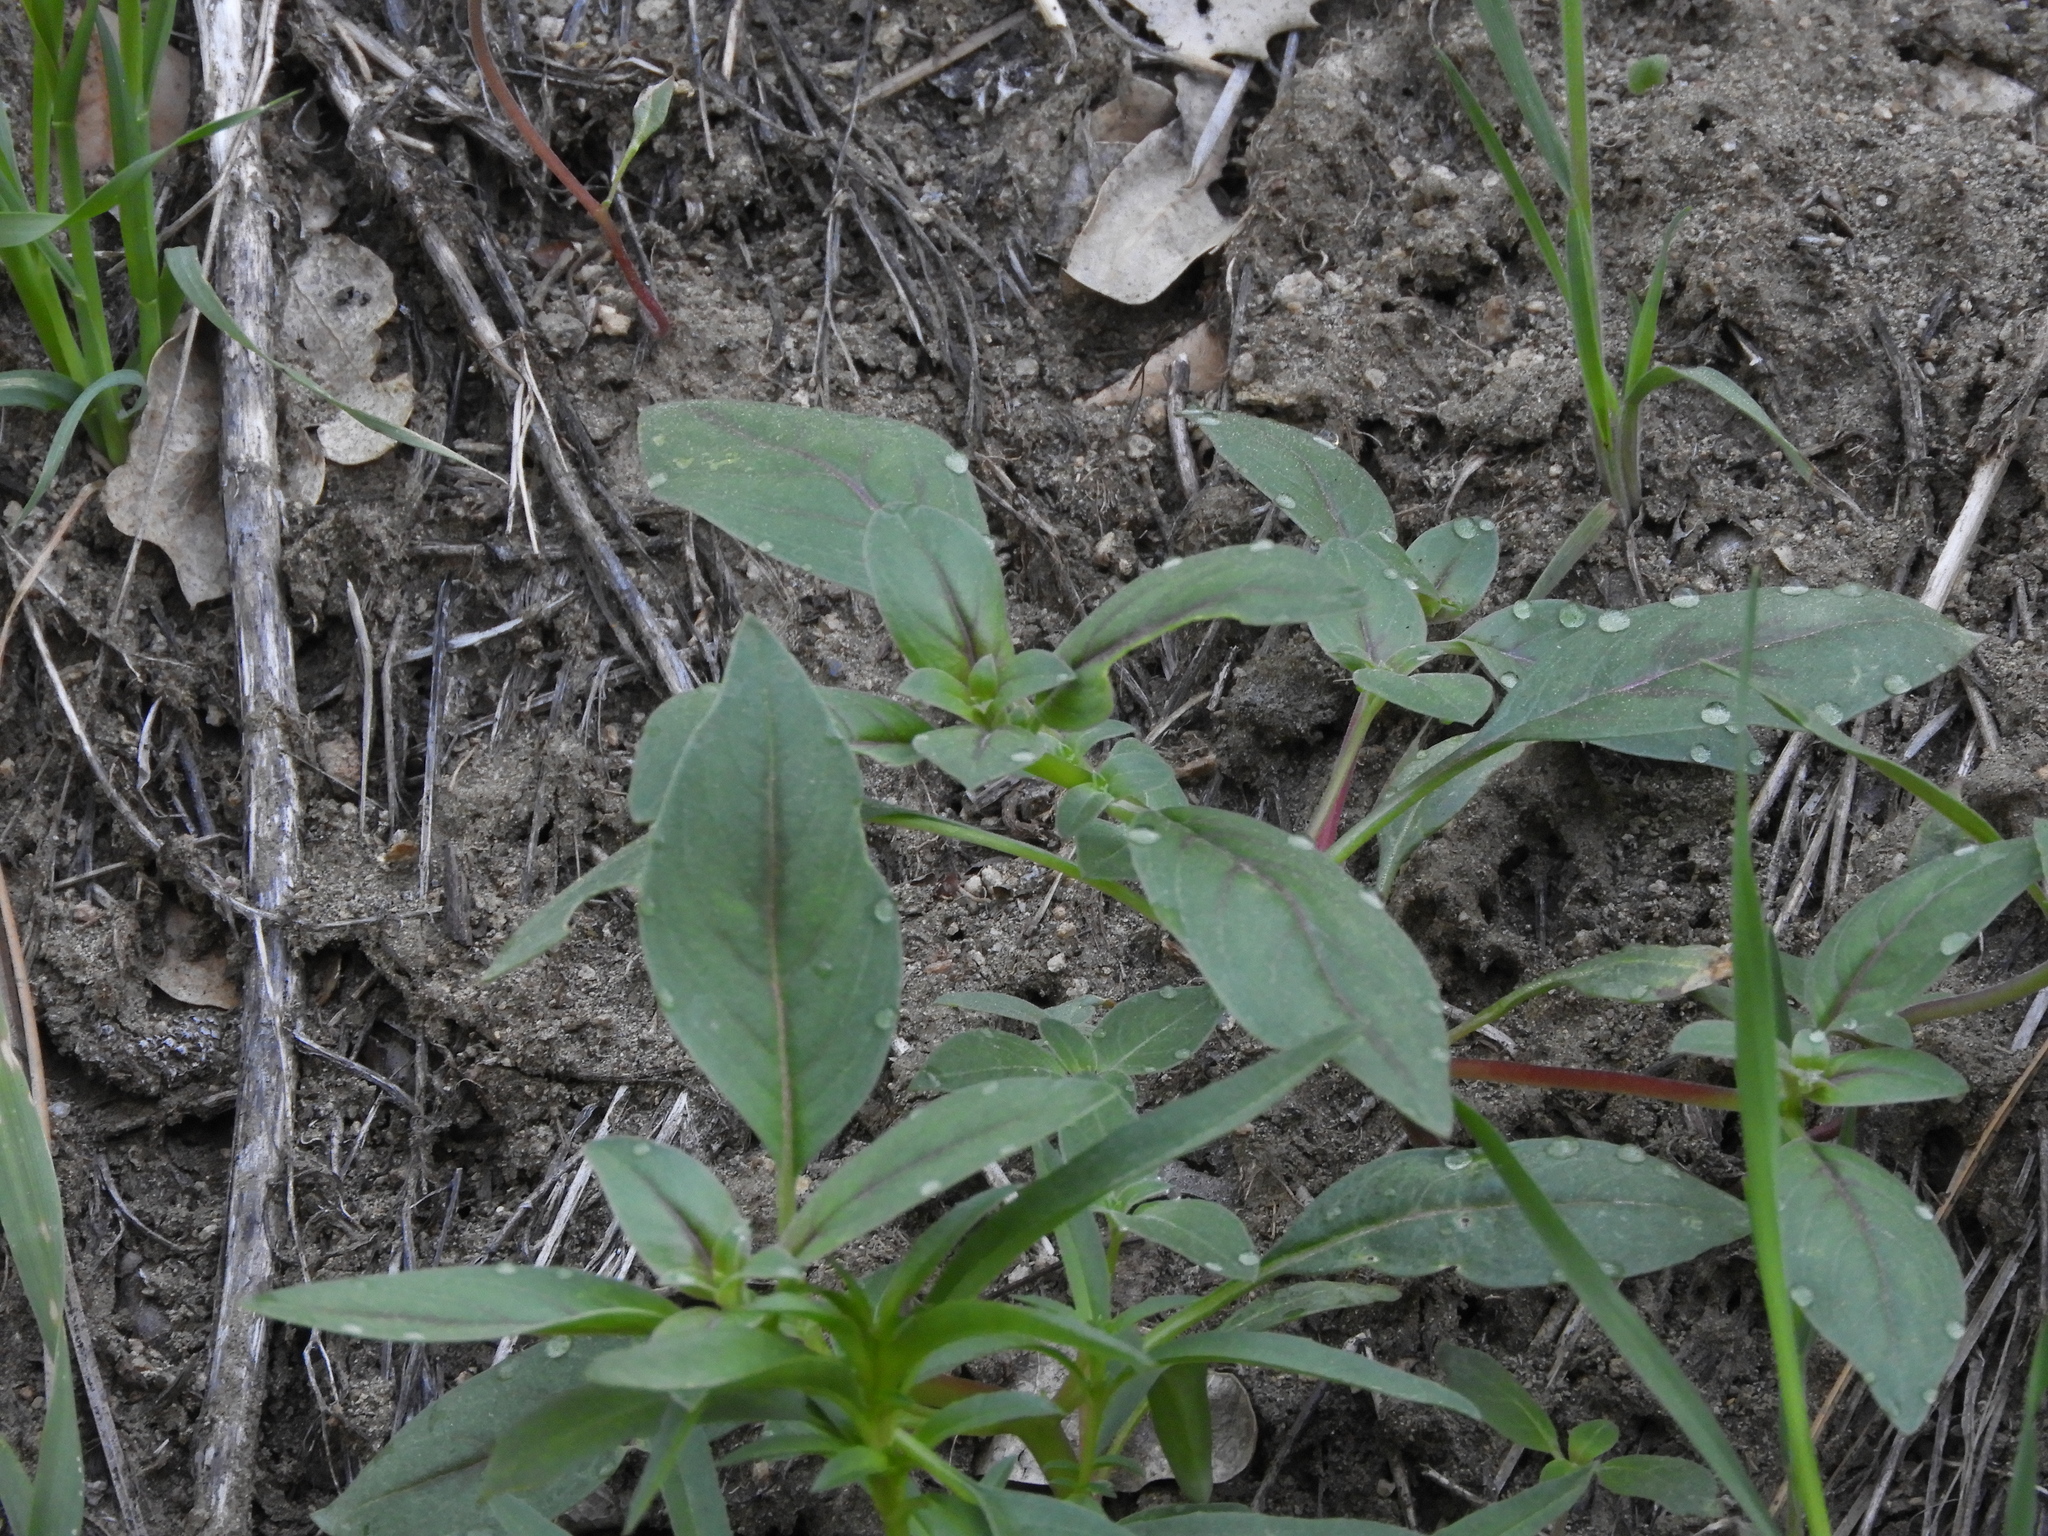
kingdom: Plantae
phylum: Tracheophyta
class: Magnoliopsida
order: Myrtales
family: Onagraceae
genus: Clarkia
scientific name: Clarkia rhomboidea
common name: Broadleaf clarkia
